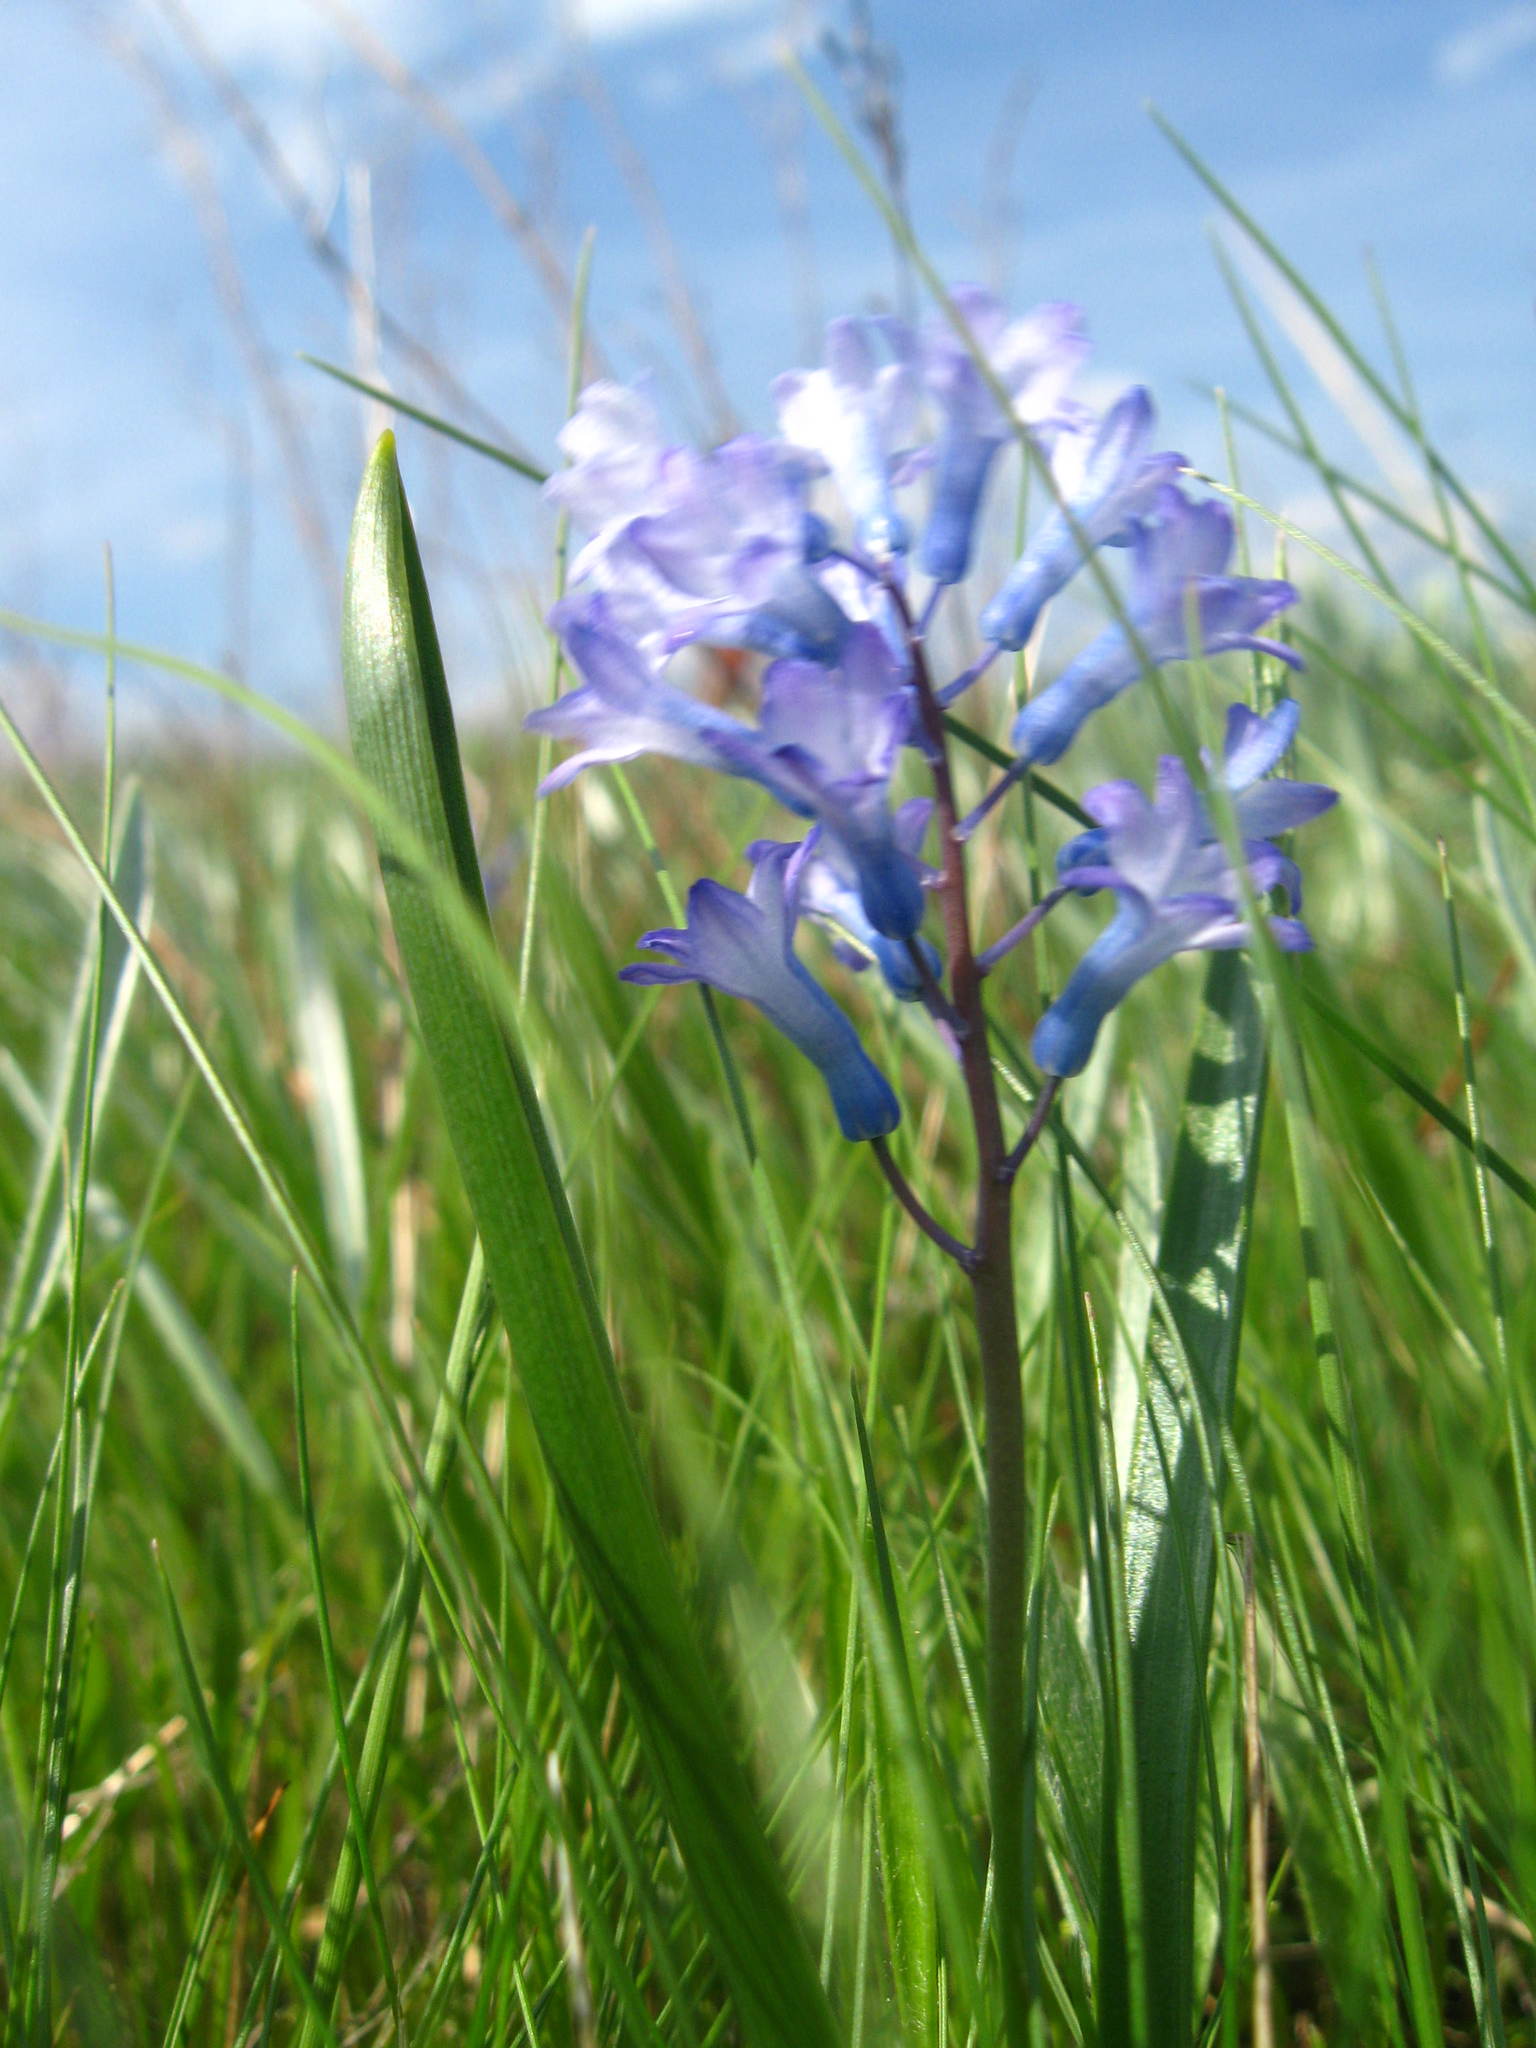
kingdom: Plantae
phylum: Tracheophyta
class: Liliopsida
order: Asparagales
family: Asparagaceae
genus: Hyacinthella
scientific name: Hyacinthella pallasiana
